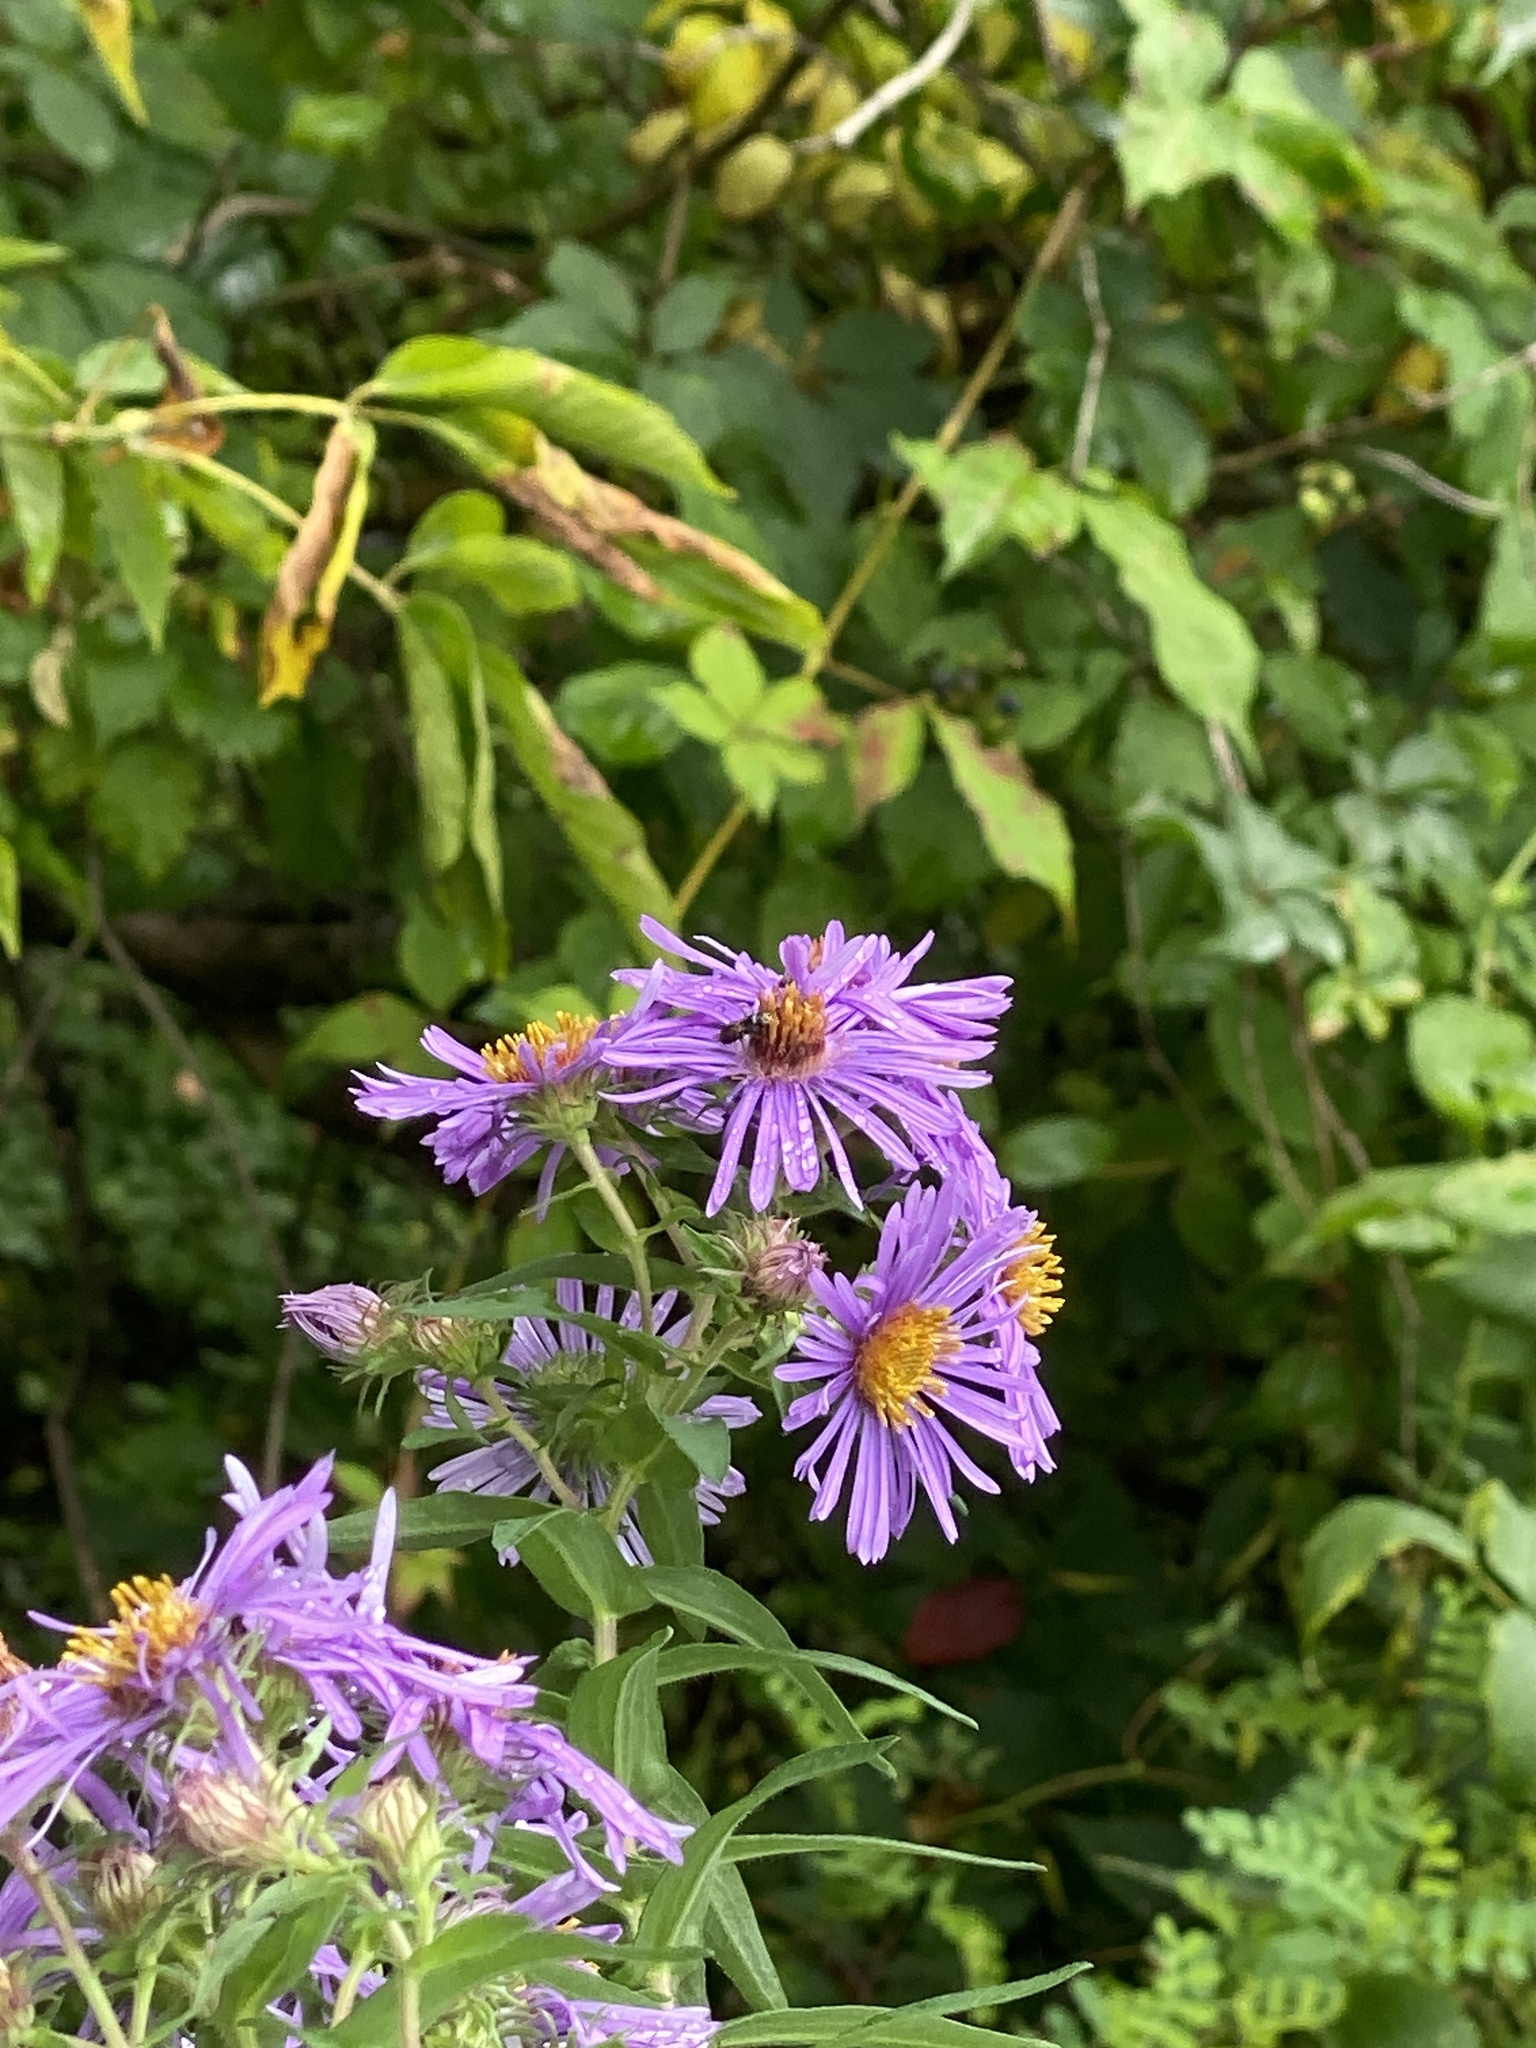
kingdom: Plantae
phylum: Tracheophyta
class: Magnoliopsida
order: Asterales
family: Asteraceae
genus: Symphyotrichum
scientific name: Symphyotrichum novae-angliae
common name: Michaelmas daisy
